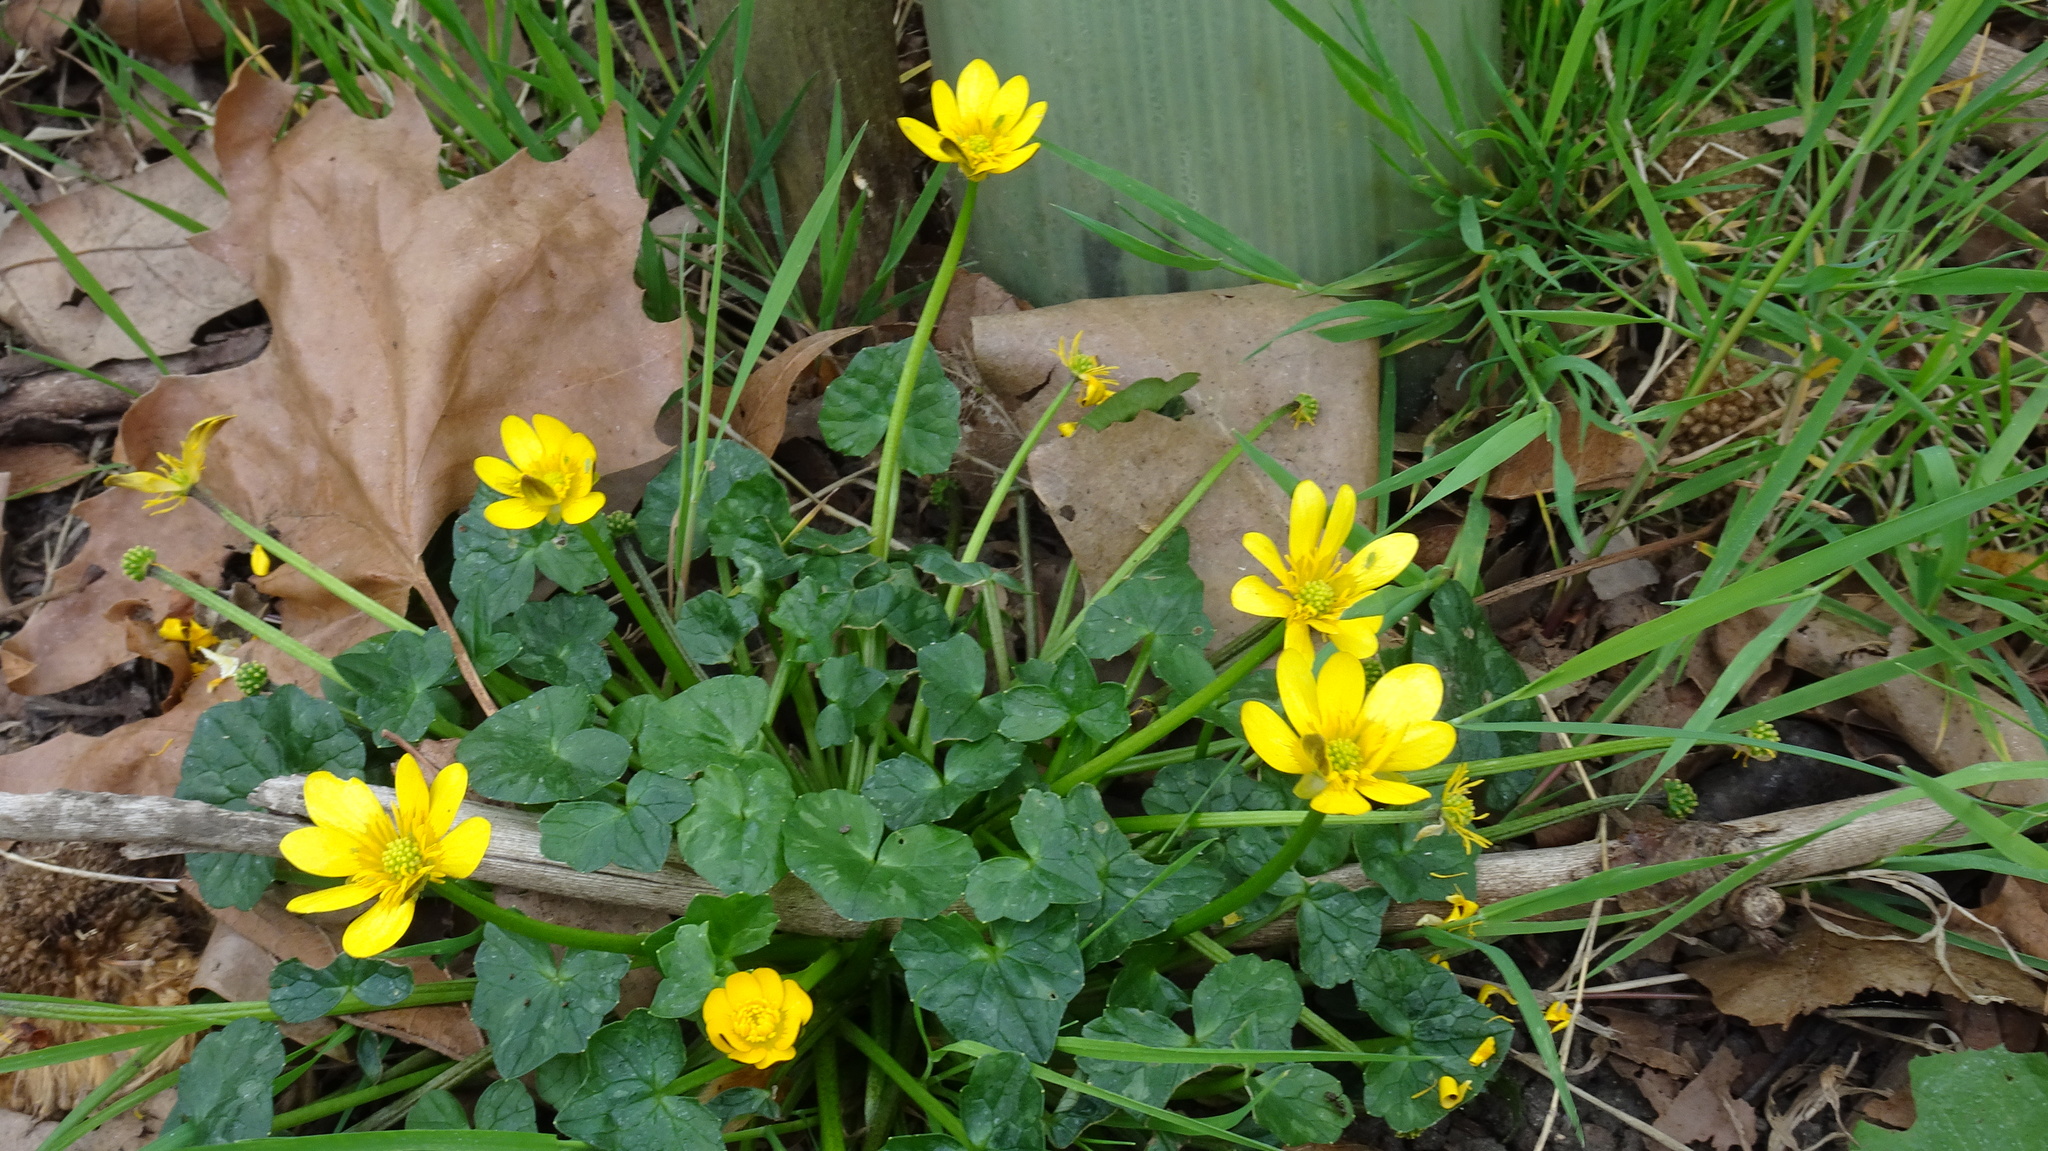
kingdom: Plantae
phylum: Tracheophyta
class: Magnoliopsida
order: Ranunculales
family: Ranunculaceae
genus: Ficaria
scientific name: Ficaria verna
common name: Lesser celandine
